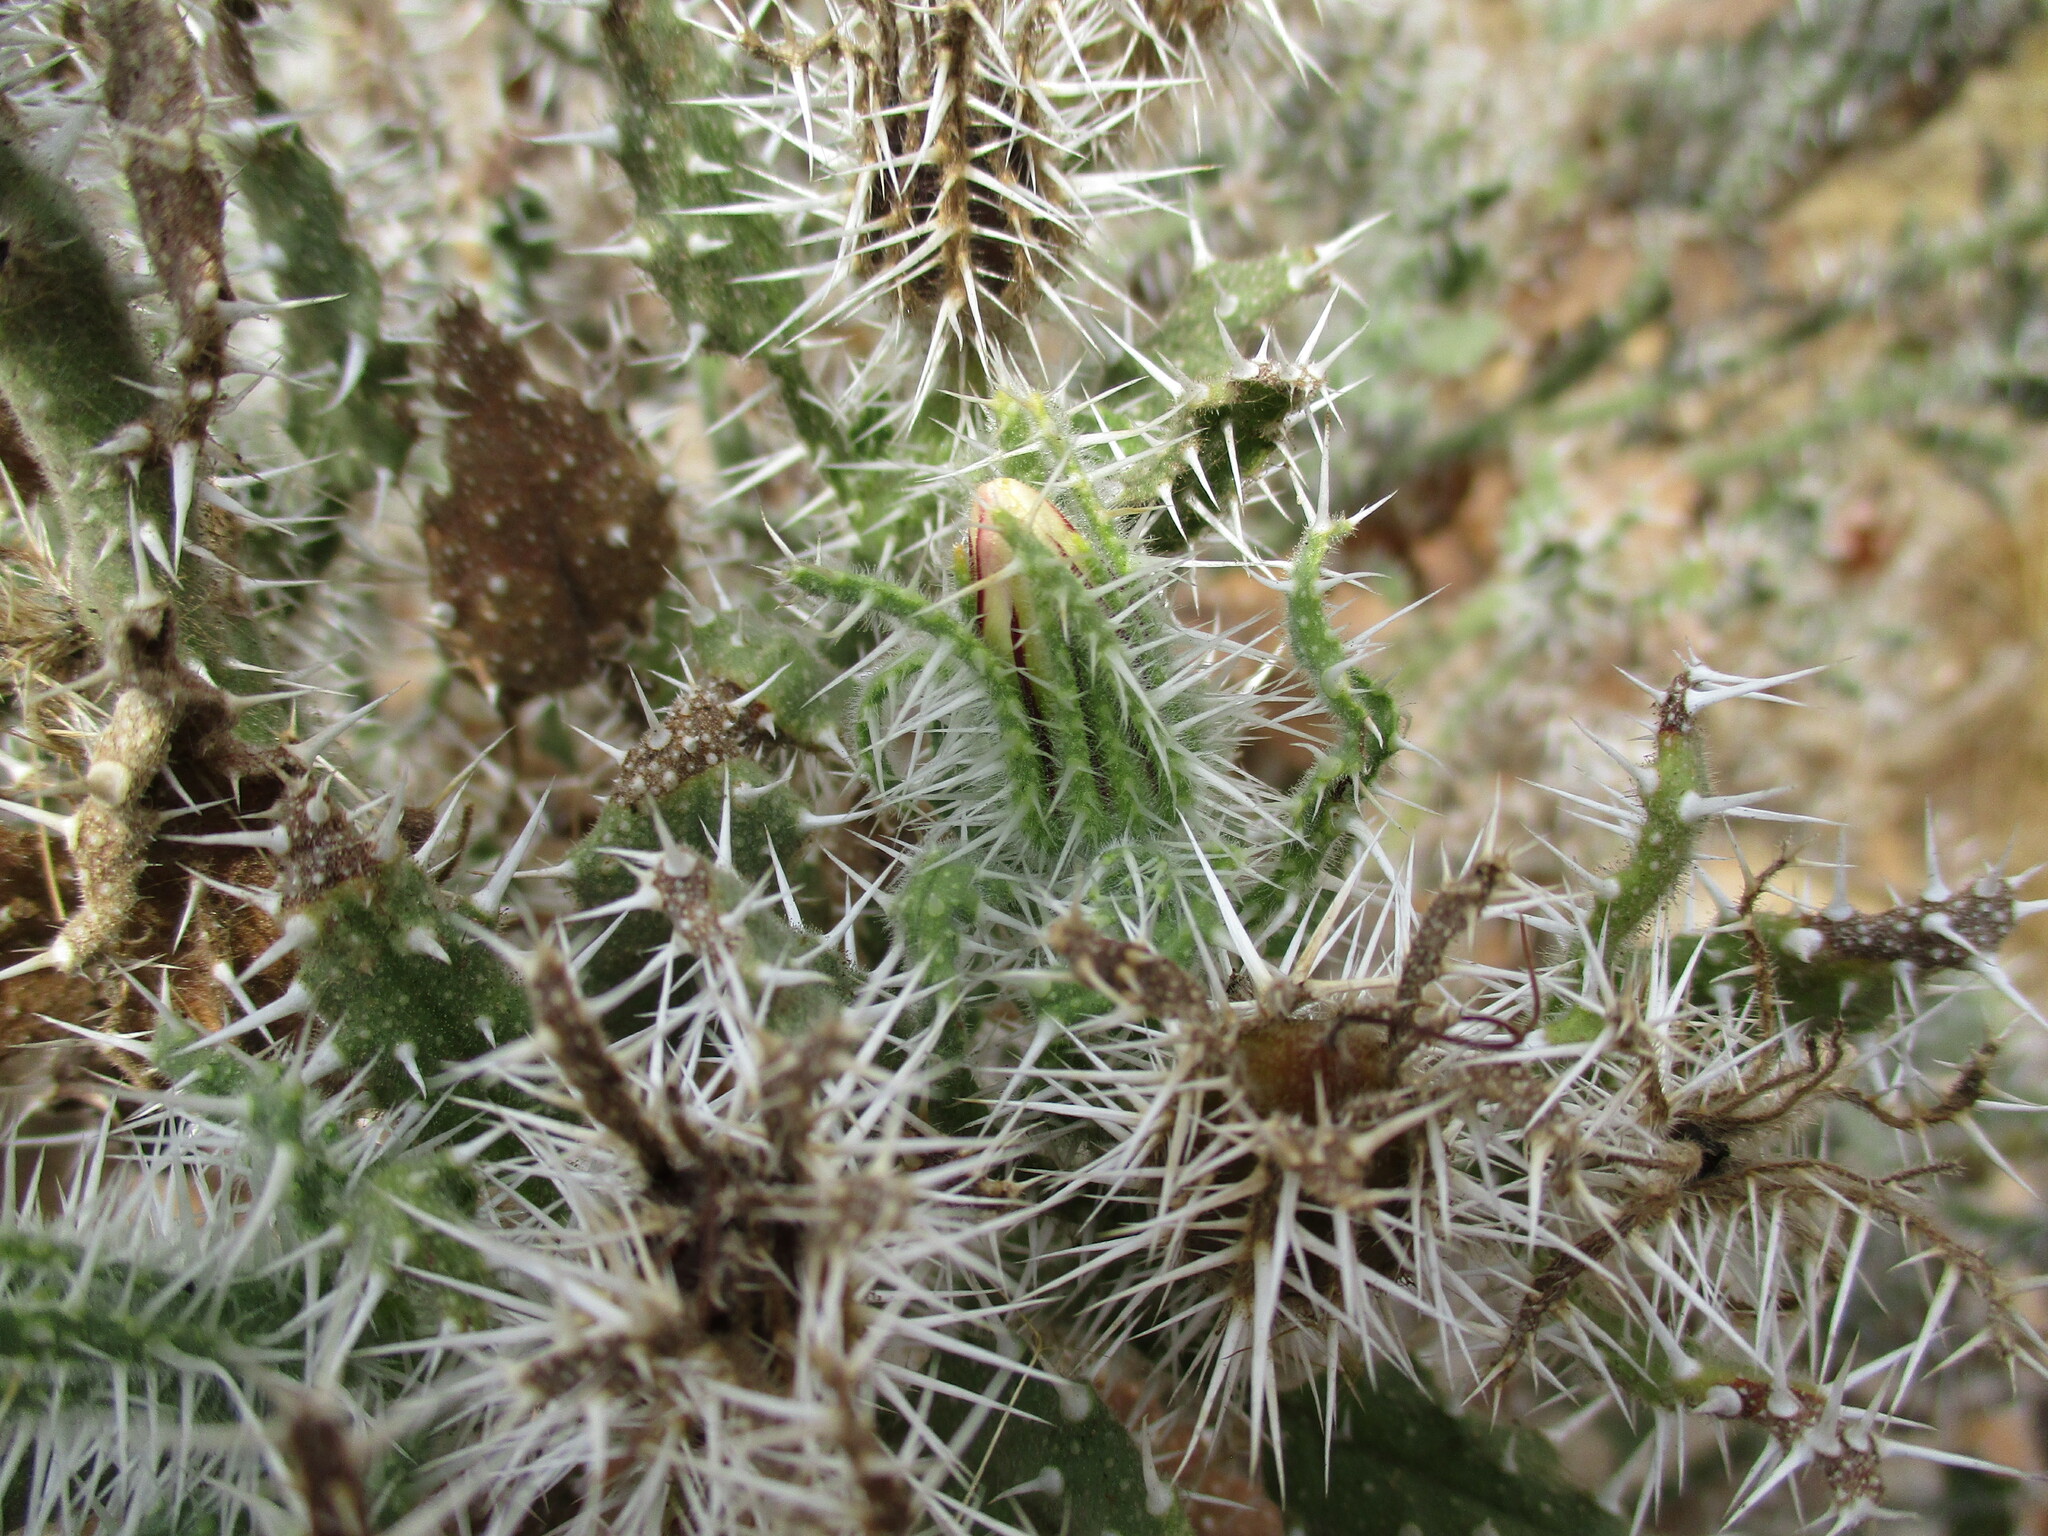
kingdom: Plantae
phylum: Tracheophyta
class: Magnoliopsida
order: Boraginales
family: Boraginaceae
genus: Codon
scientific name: Codon royenii
